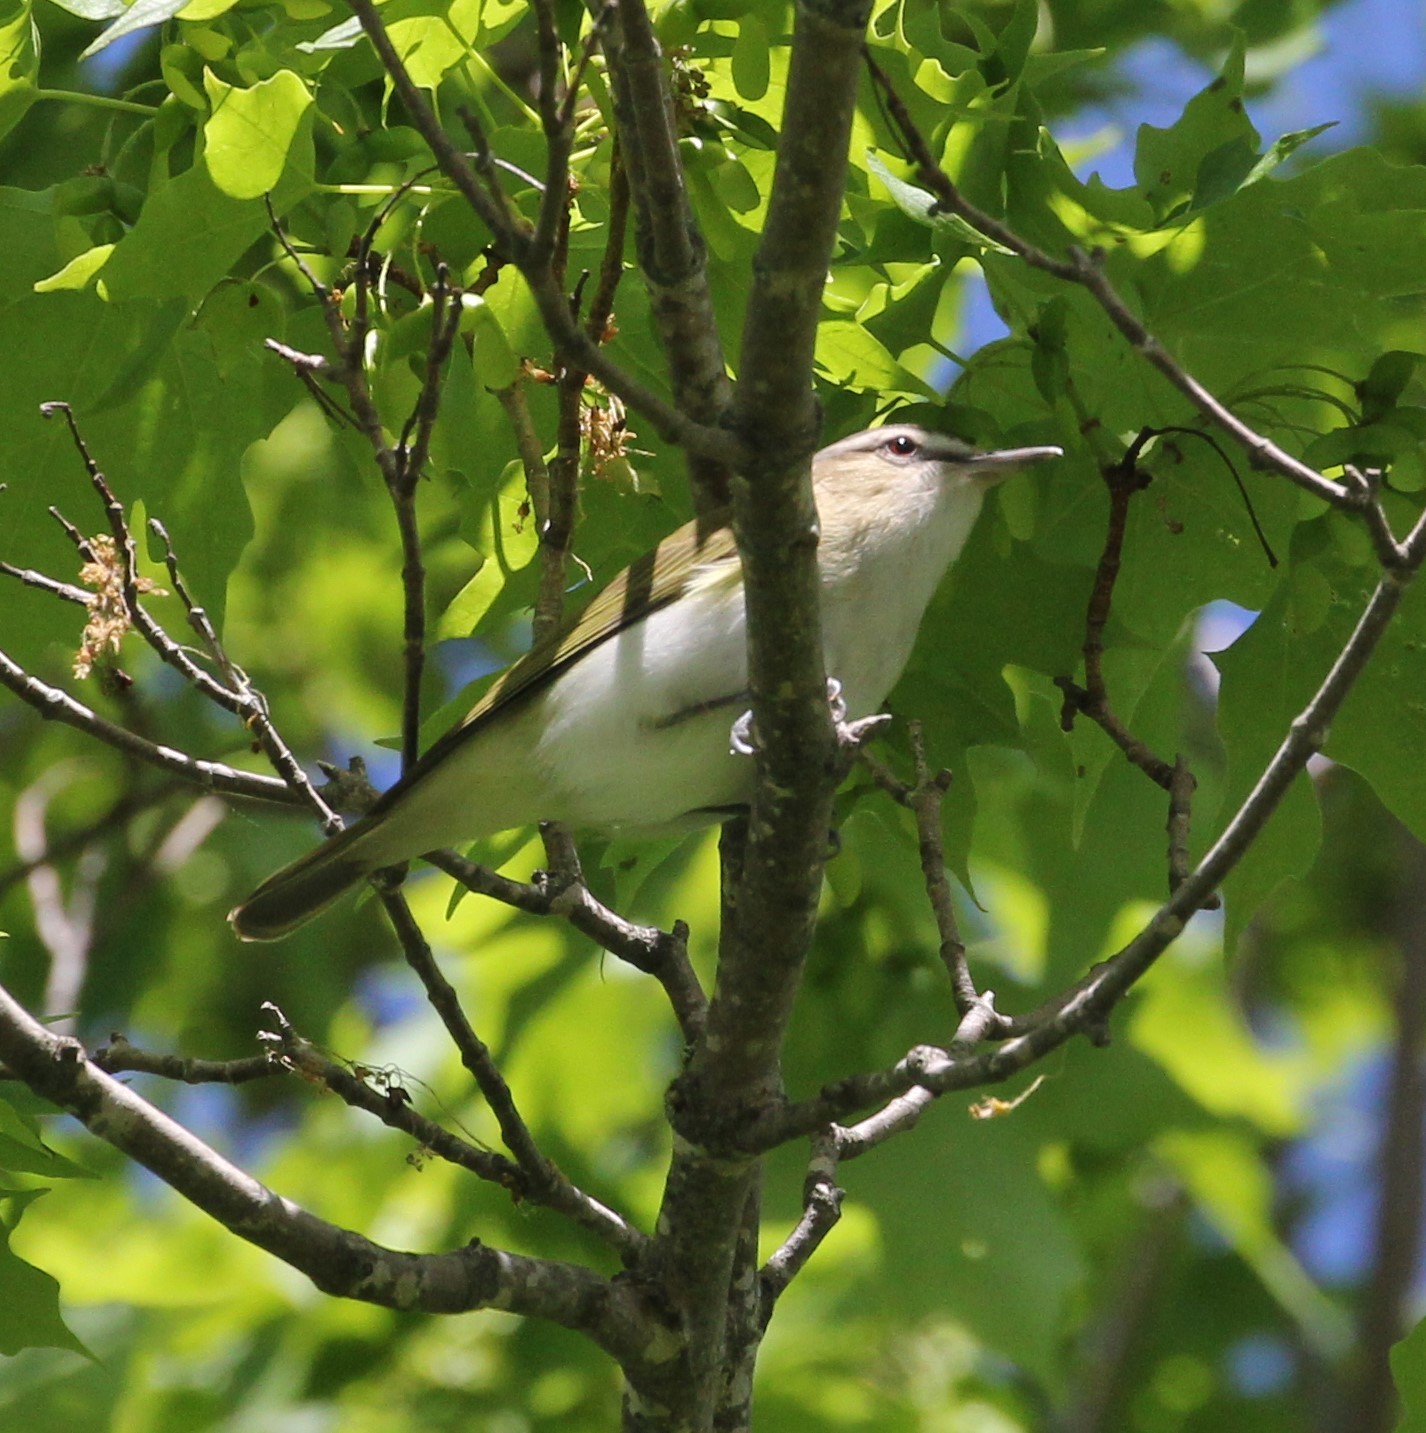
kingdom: Animalia
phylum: Chordata
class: Aves
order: Passeriformes
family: Vireonidae
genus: Vireo
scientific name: Vireo olivaceus
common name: Red-eyed vireo
